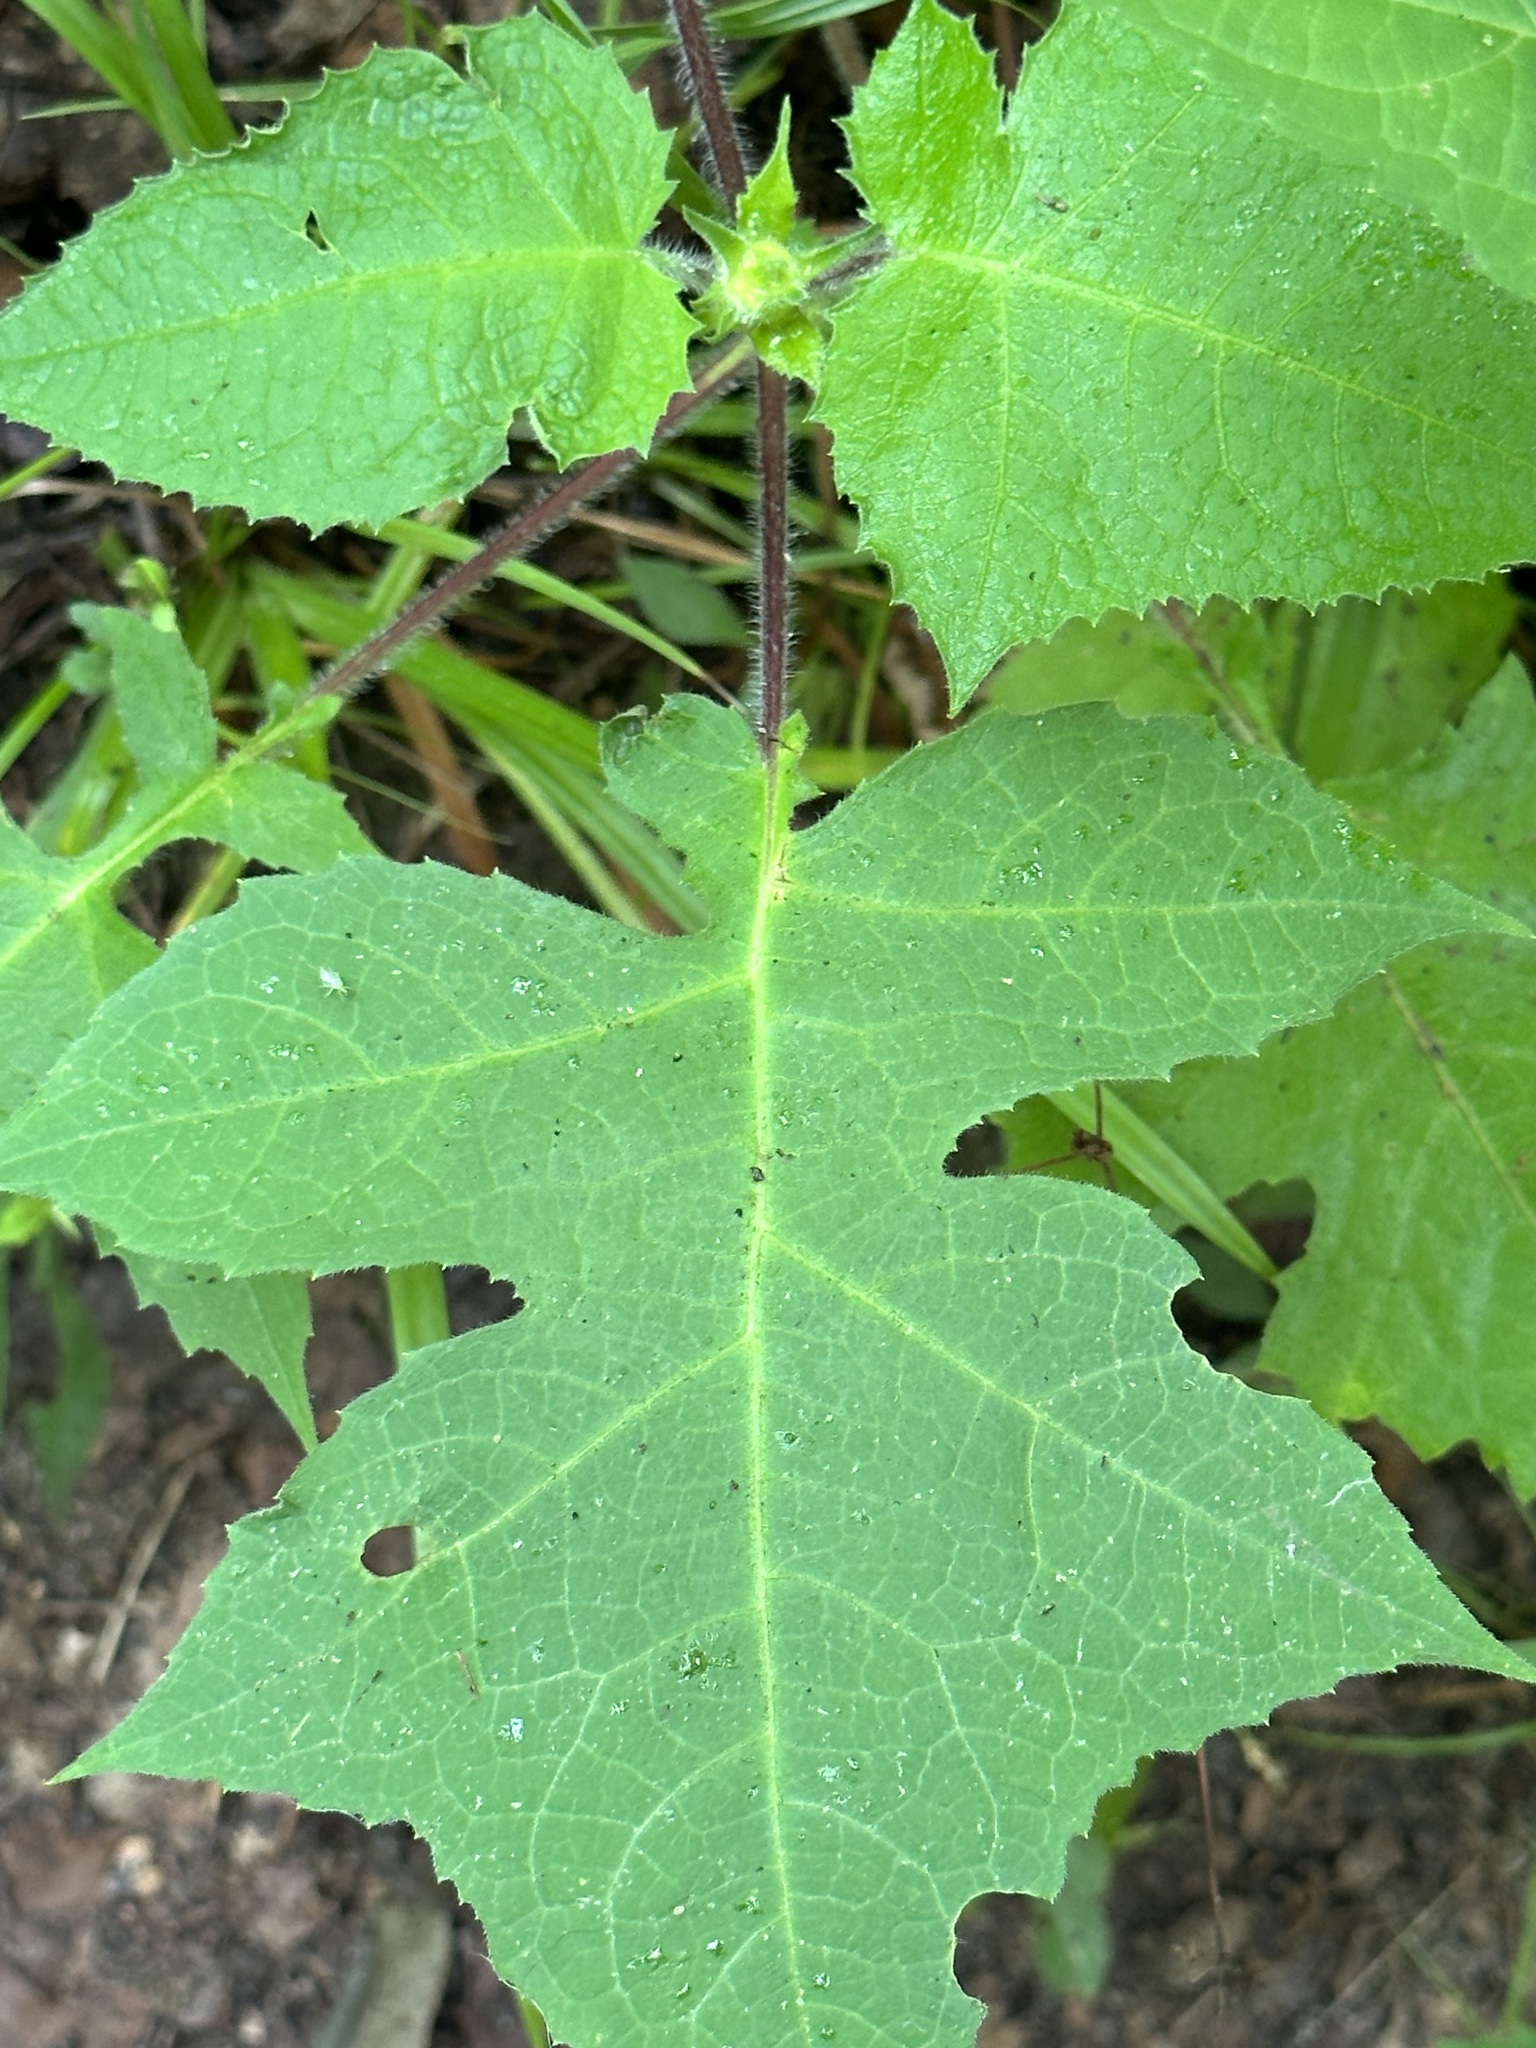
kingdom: Plantae
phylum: Tracheophyta
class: Magnoliopsida
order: Asterales
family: Asteraceae
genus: Polymnia
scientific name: Polymnia canadensis
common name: Pale-flowered leafcup
